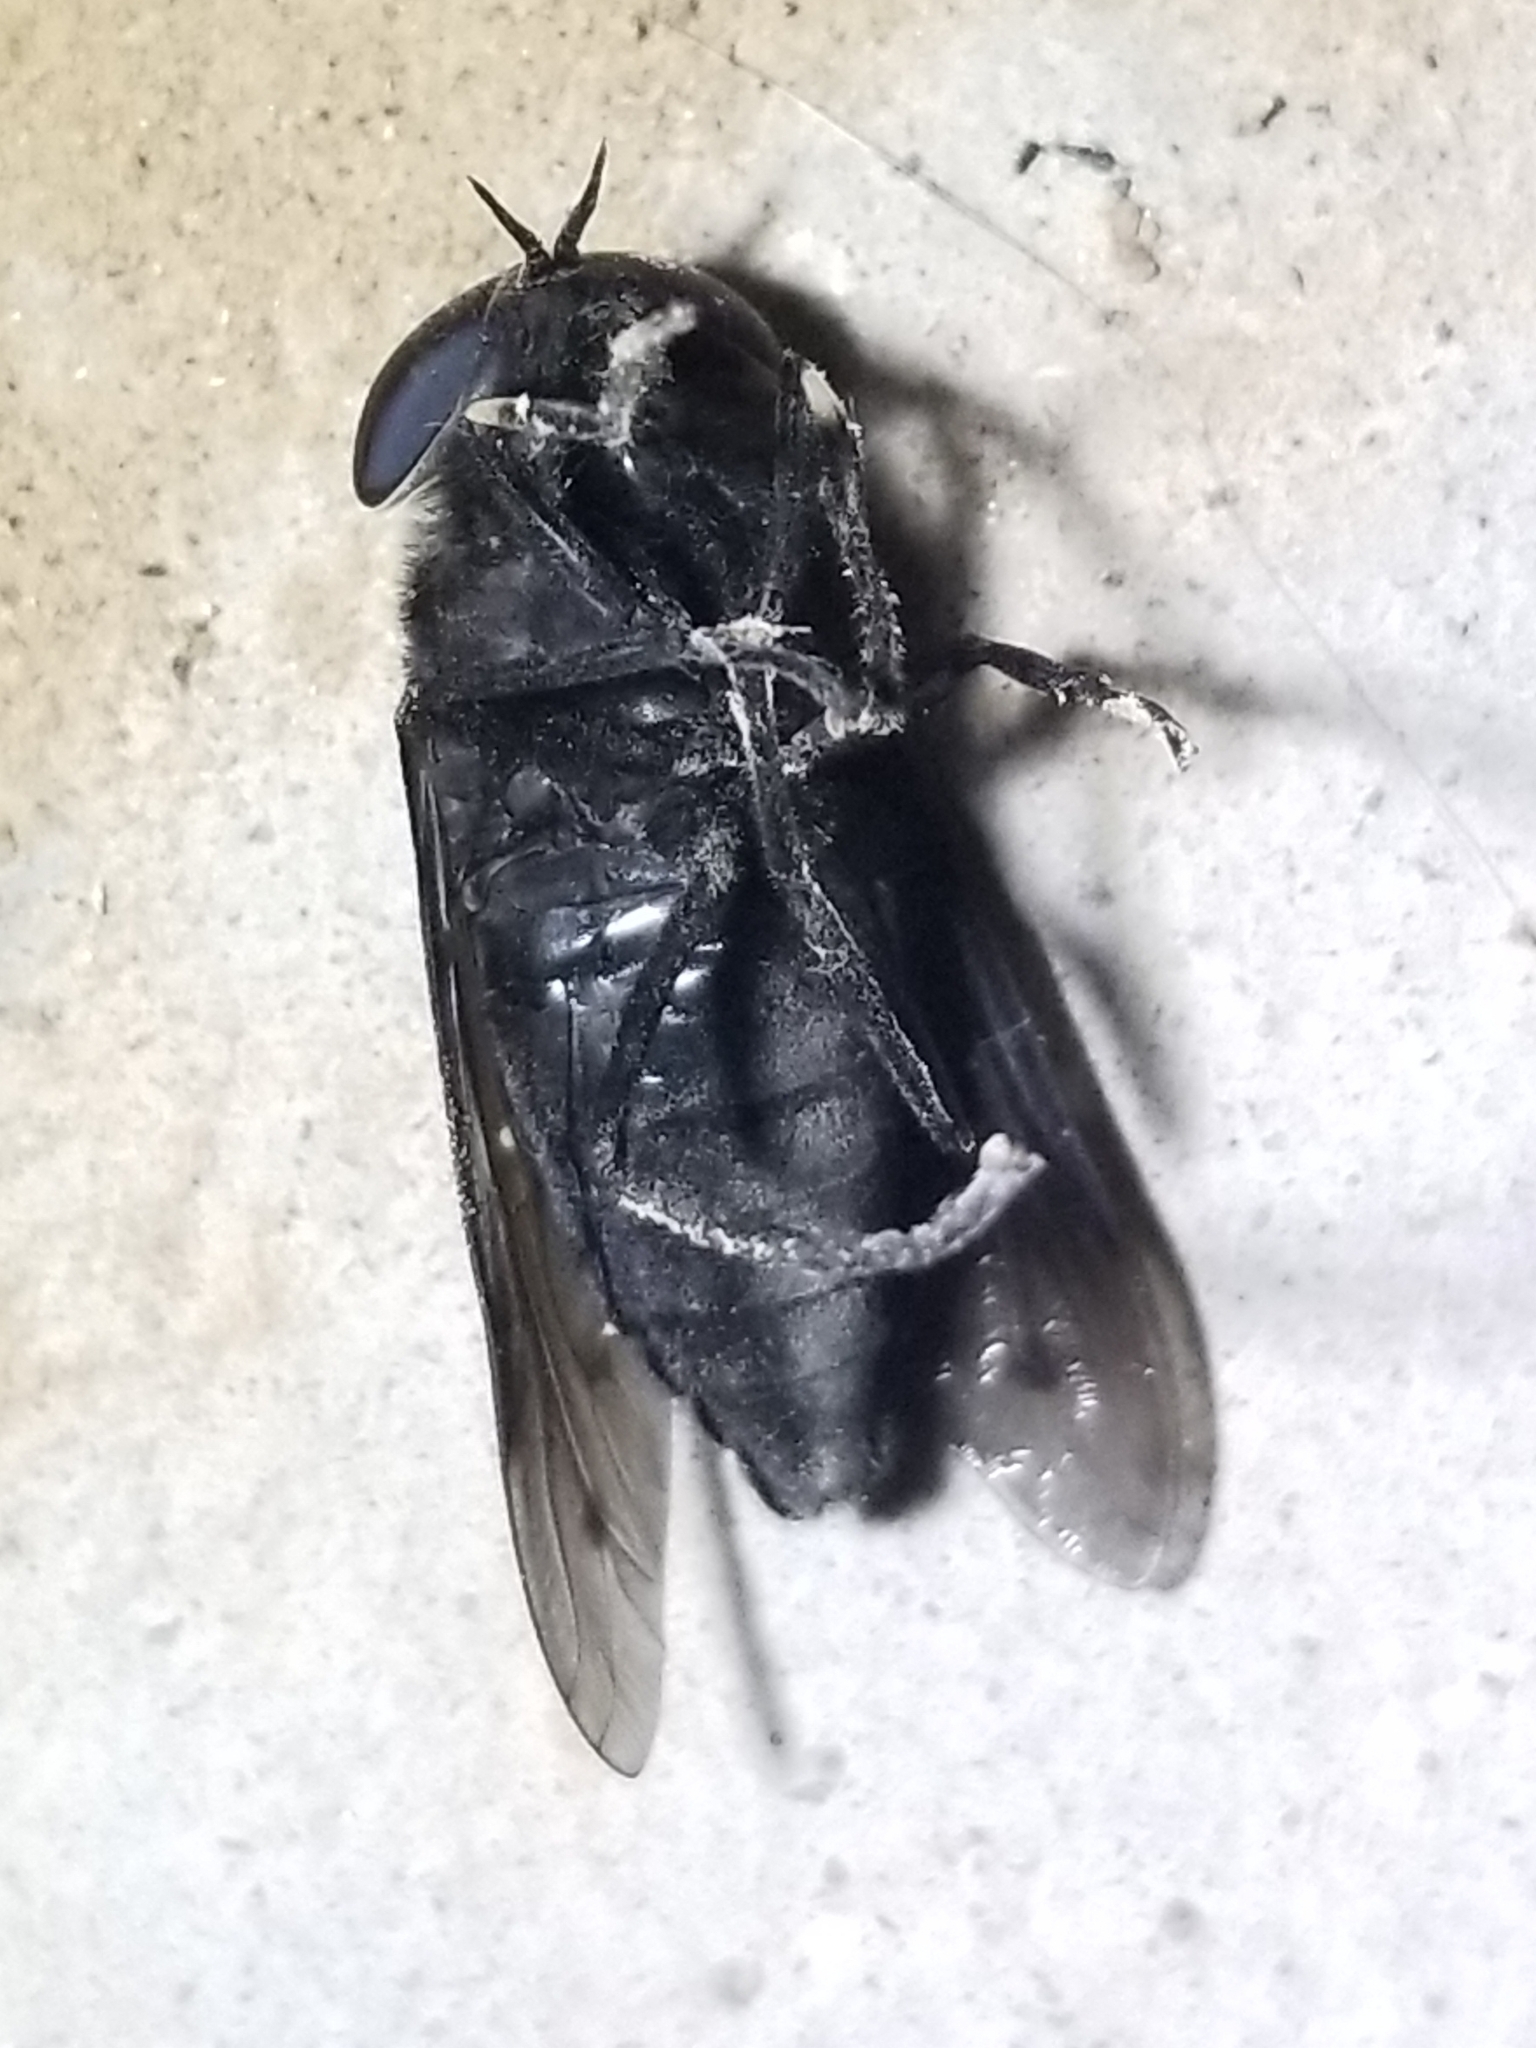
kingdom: Animalia
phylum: Arthropoda
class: Insecta
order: Diptera
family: Tabanidae
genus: Tabanus
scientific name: Tabanus punctifer
